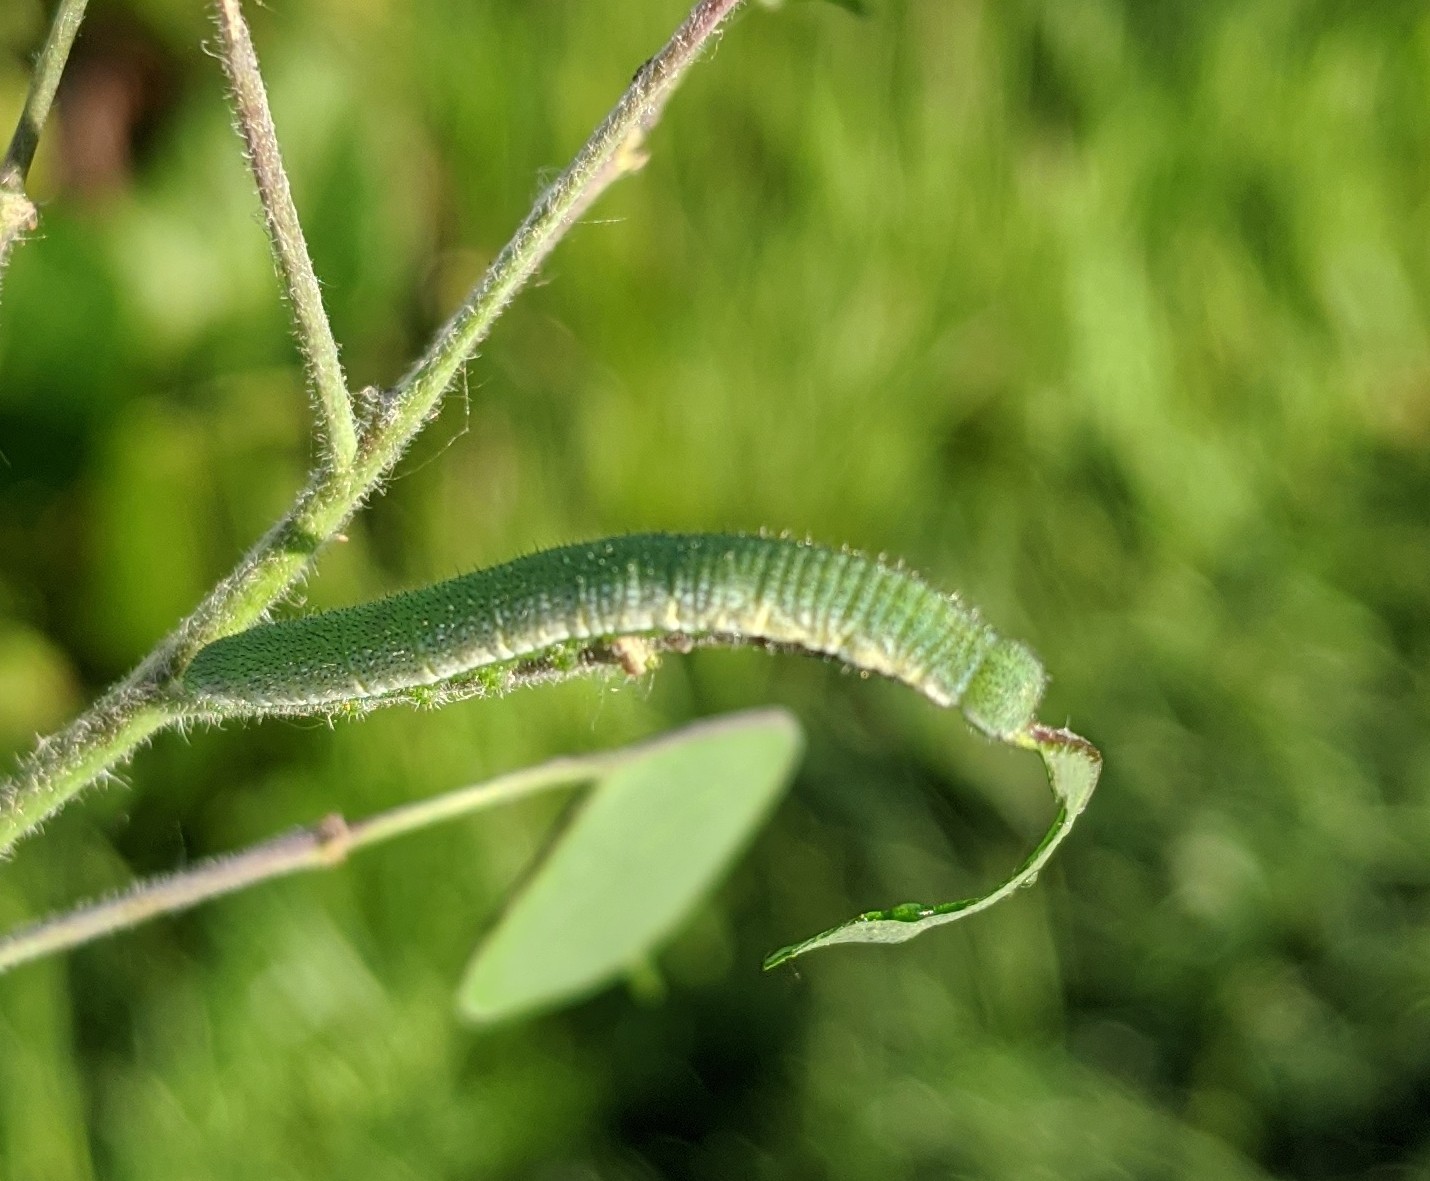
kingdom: Animalia
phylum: Arthropoda
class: Insecta
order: Lepidoptera
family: Pieridae
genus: Anthocharis
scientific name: Anthocharis cardamines
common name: Orange-tip
